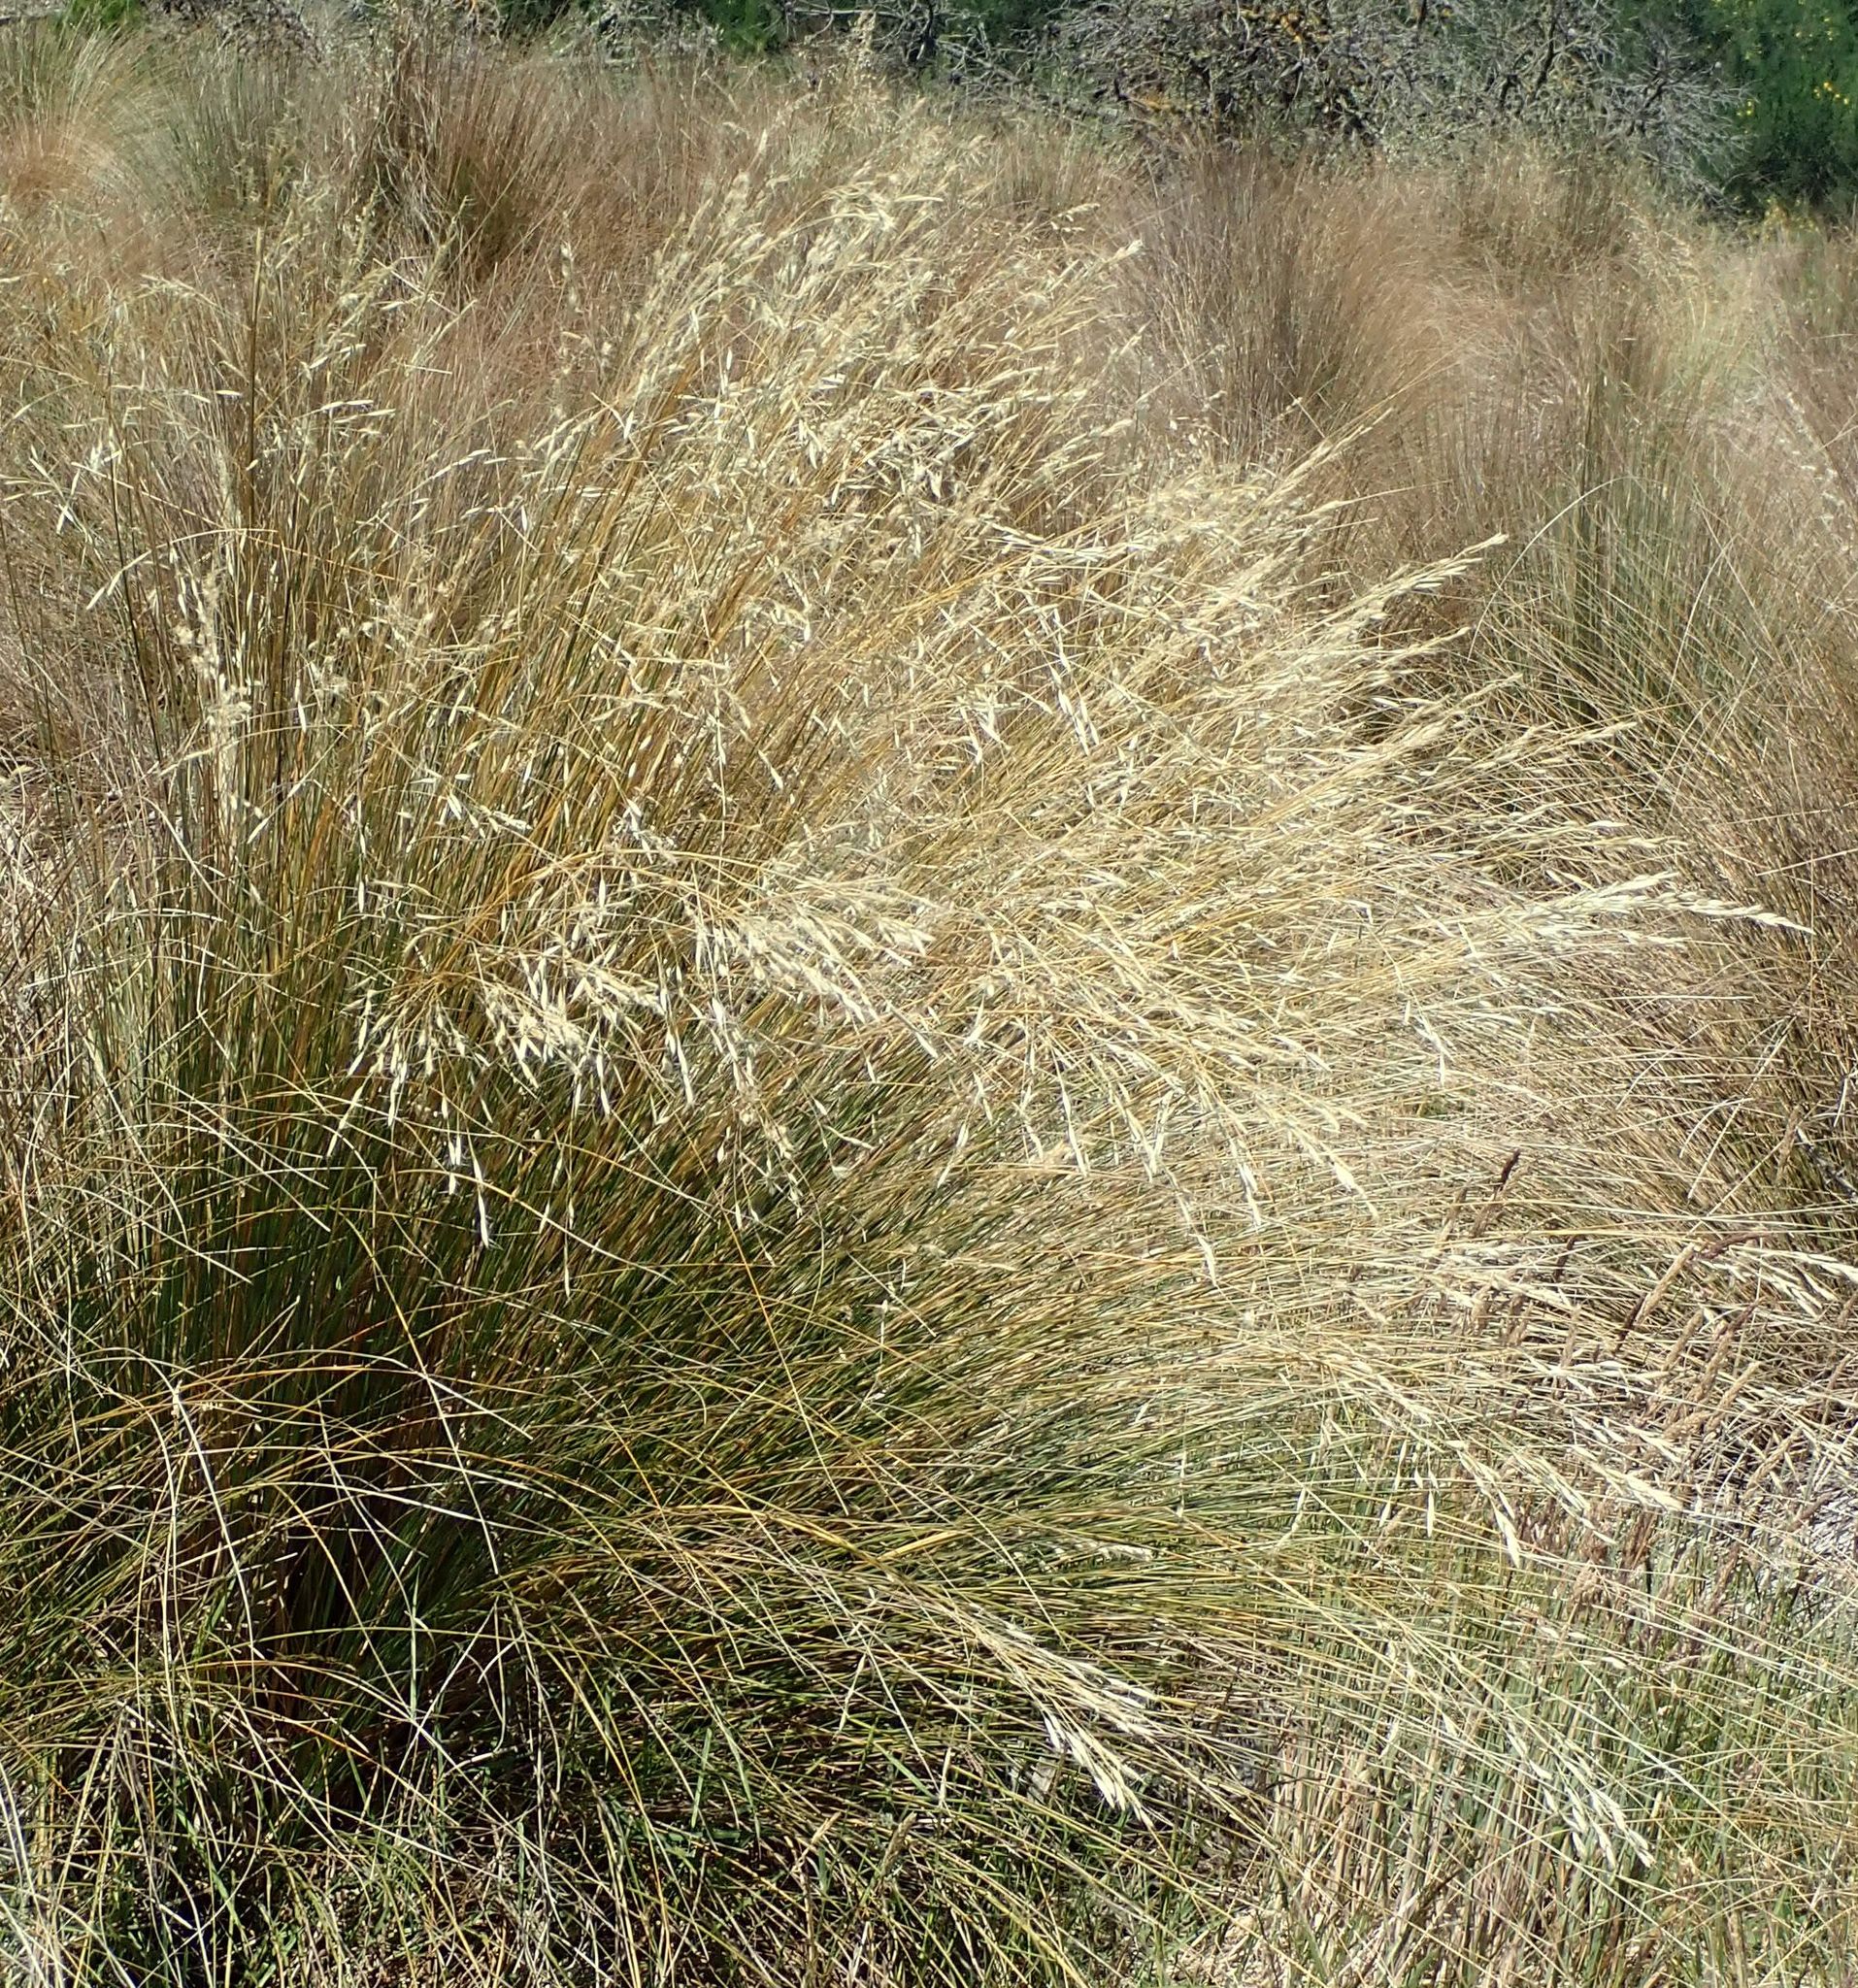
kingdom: Plantae
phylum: Tracheophyta
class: Liliopsida
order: Poales
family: Poaceae
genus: Chionochloa
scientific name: Chionochloa rigida
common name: Narrow leaved snow tussock
